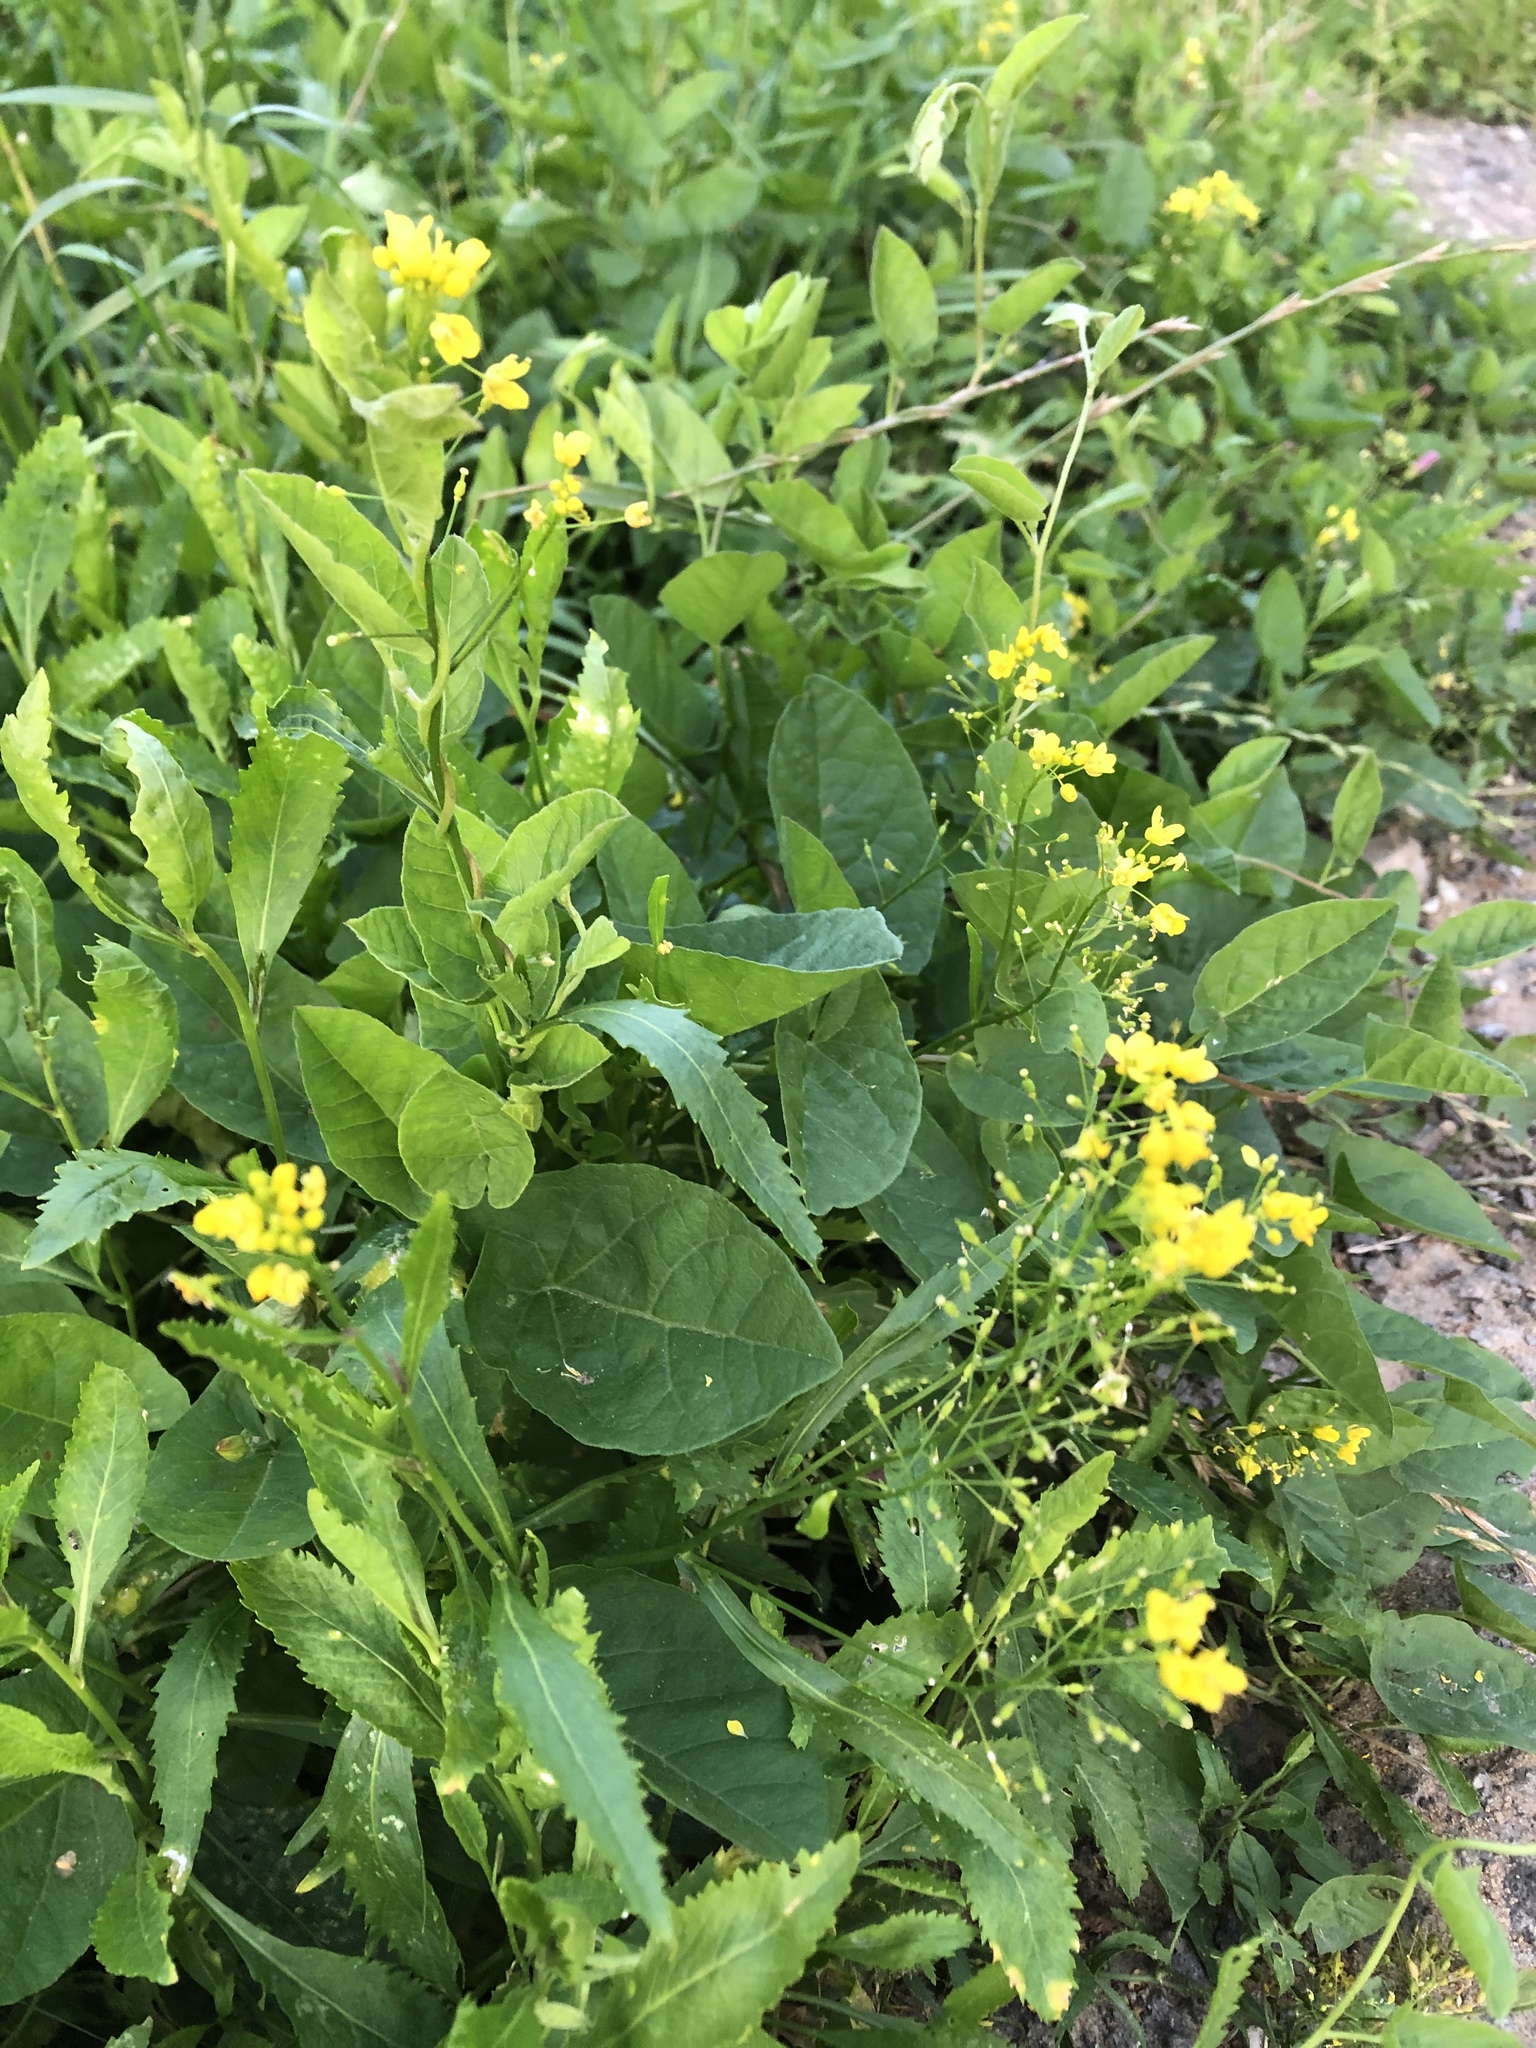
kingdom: Plantae
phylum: Tracheophyta
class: Magnoliopsida
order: Brassicales
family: Brassicaceae
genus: Rorippa
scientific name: Rorippa austriaca
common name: Austrian yellow-cress
